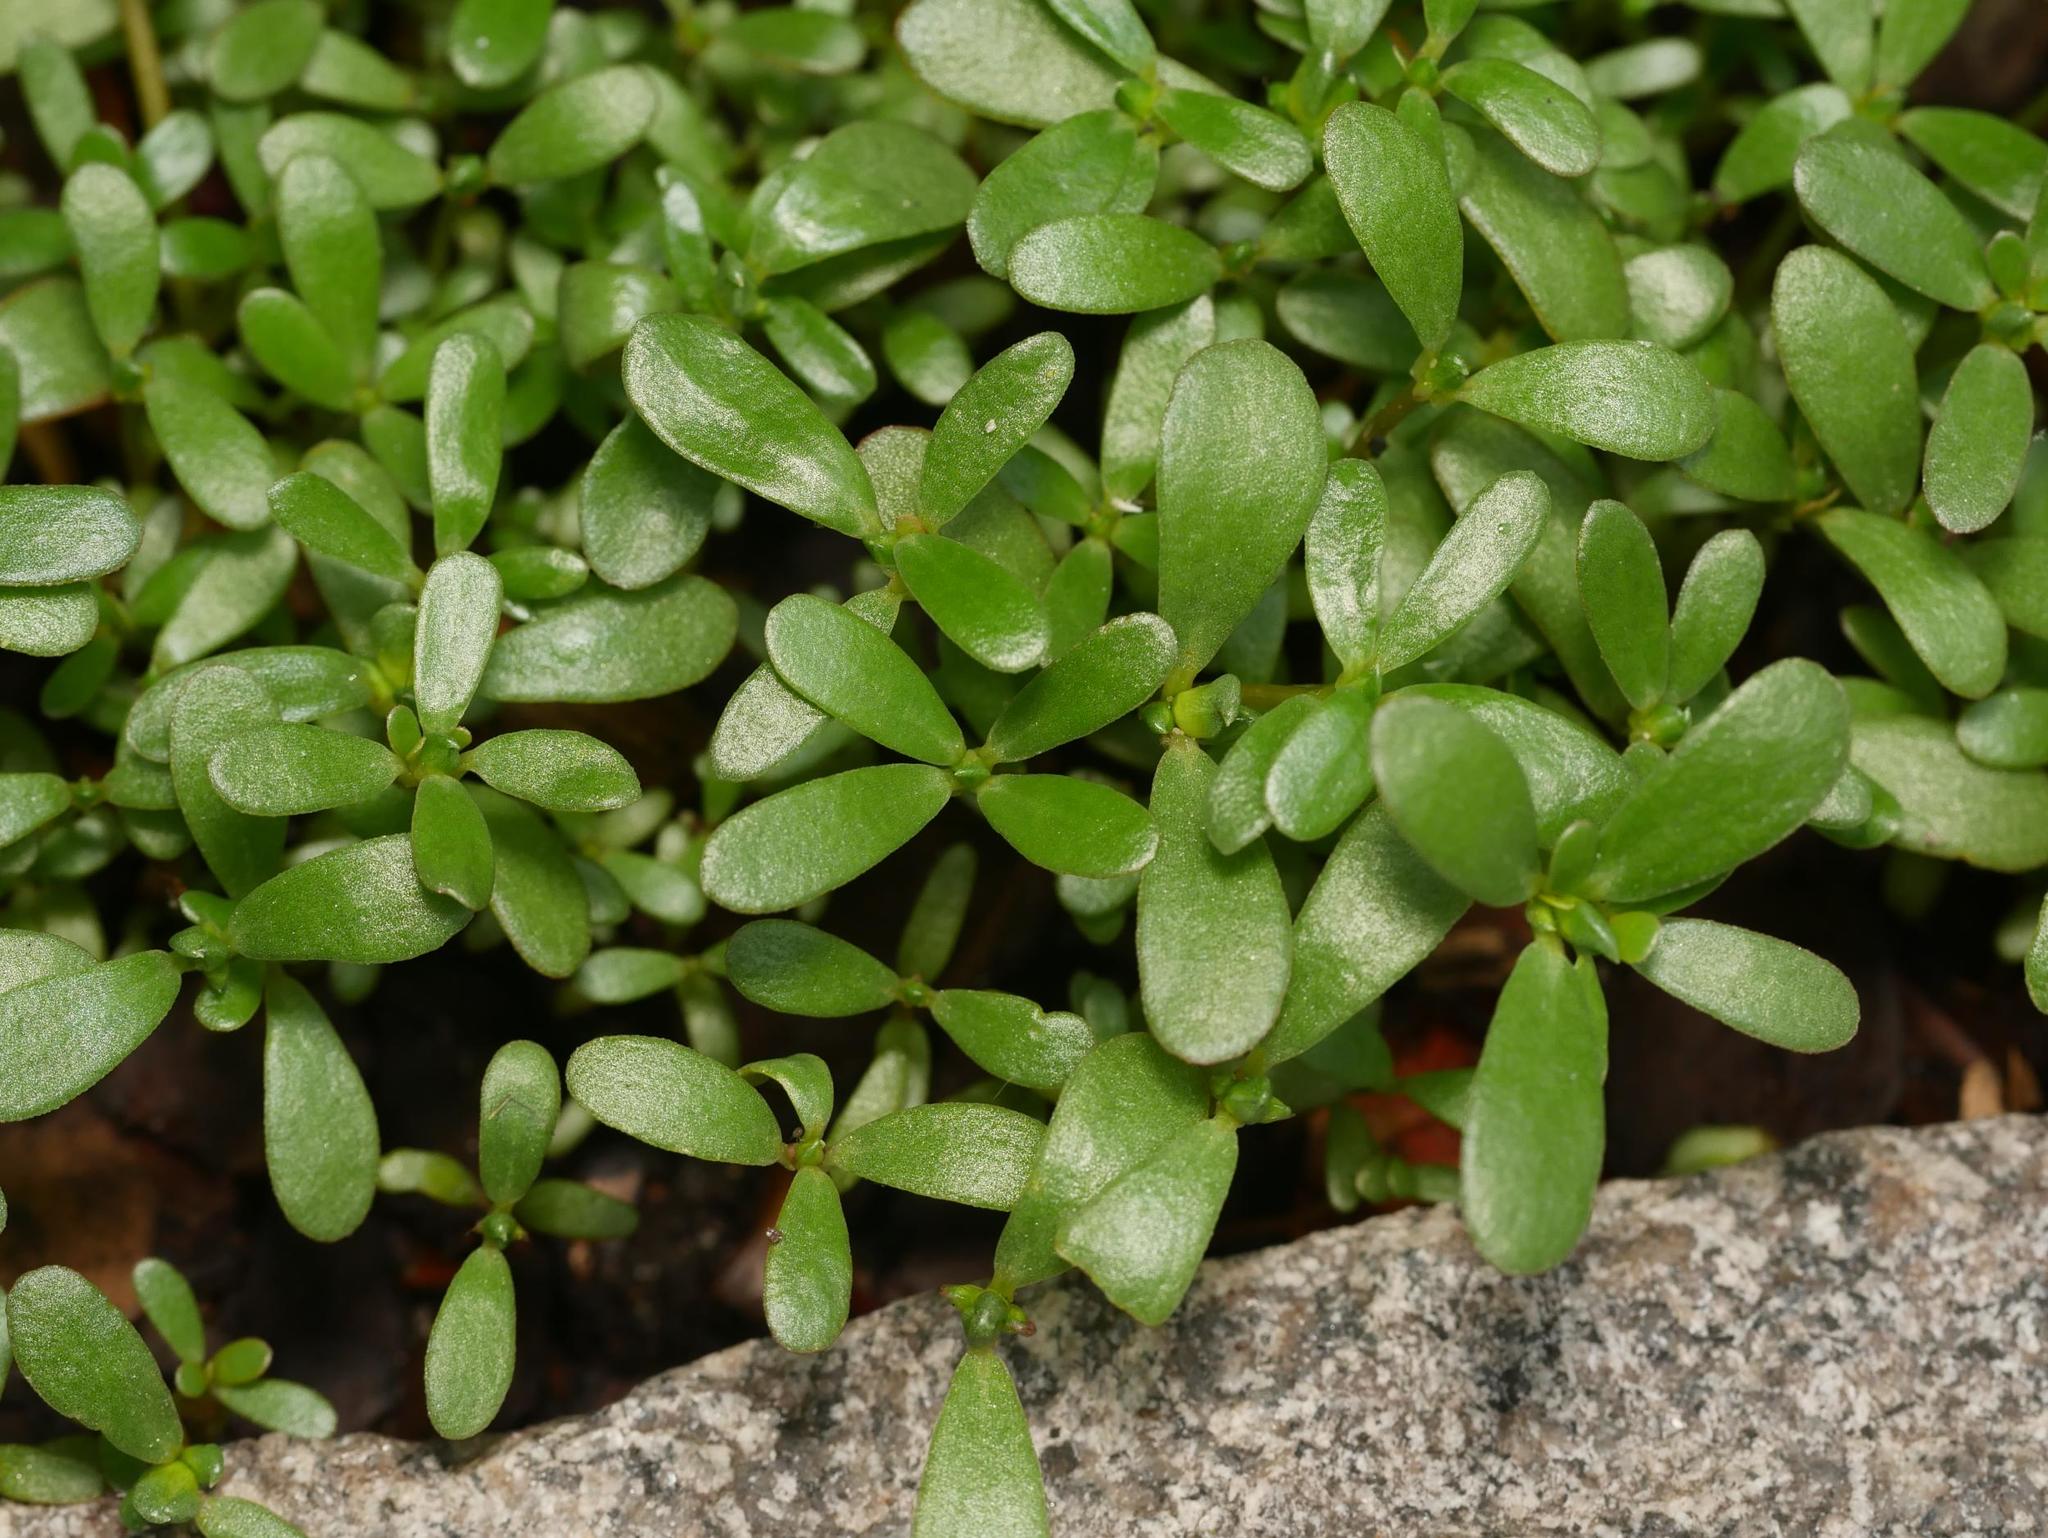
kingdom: Plantae
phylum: Tracheophyta
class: Magnoliopsida
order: Caryophyllales
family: Portulacaceae
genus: Portulaca
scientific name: Portulaca oleracea
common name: Common purslane
